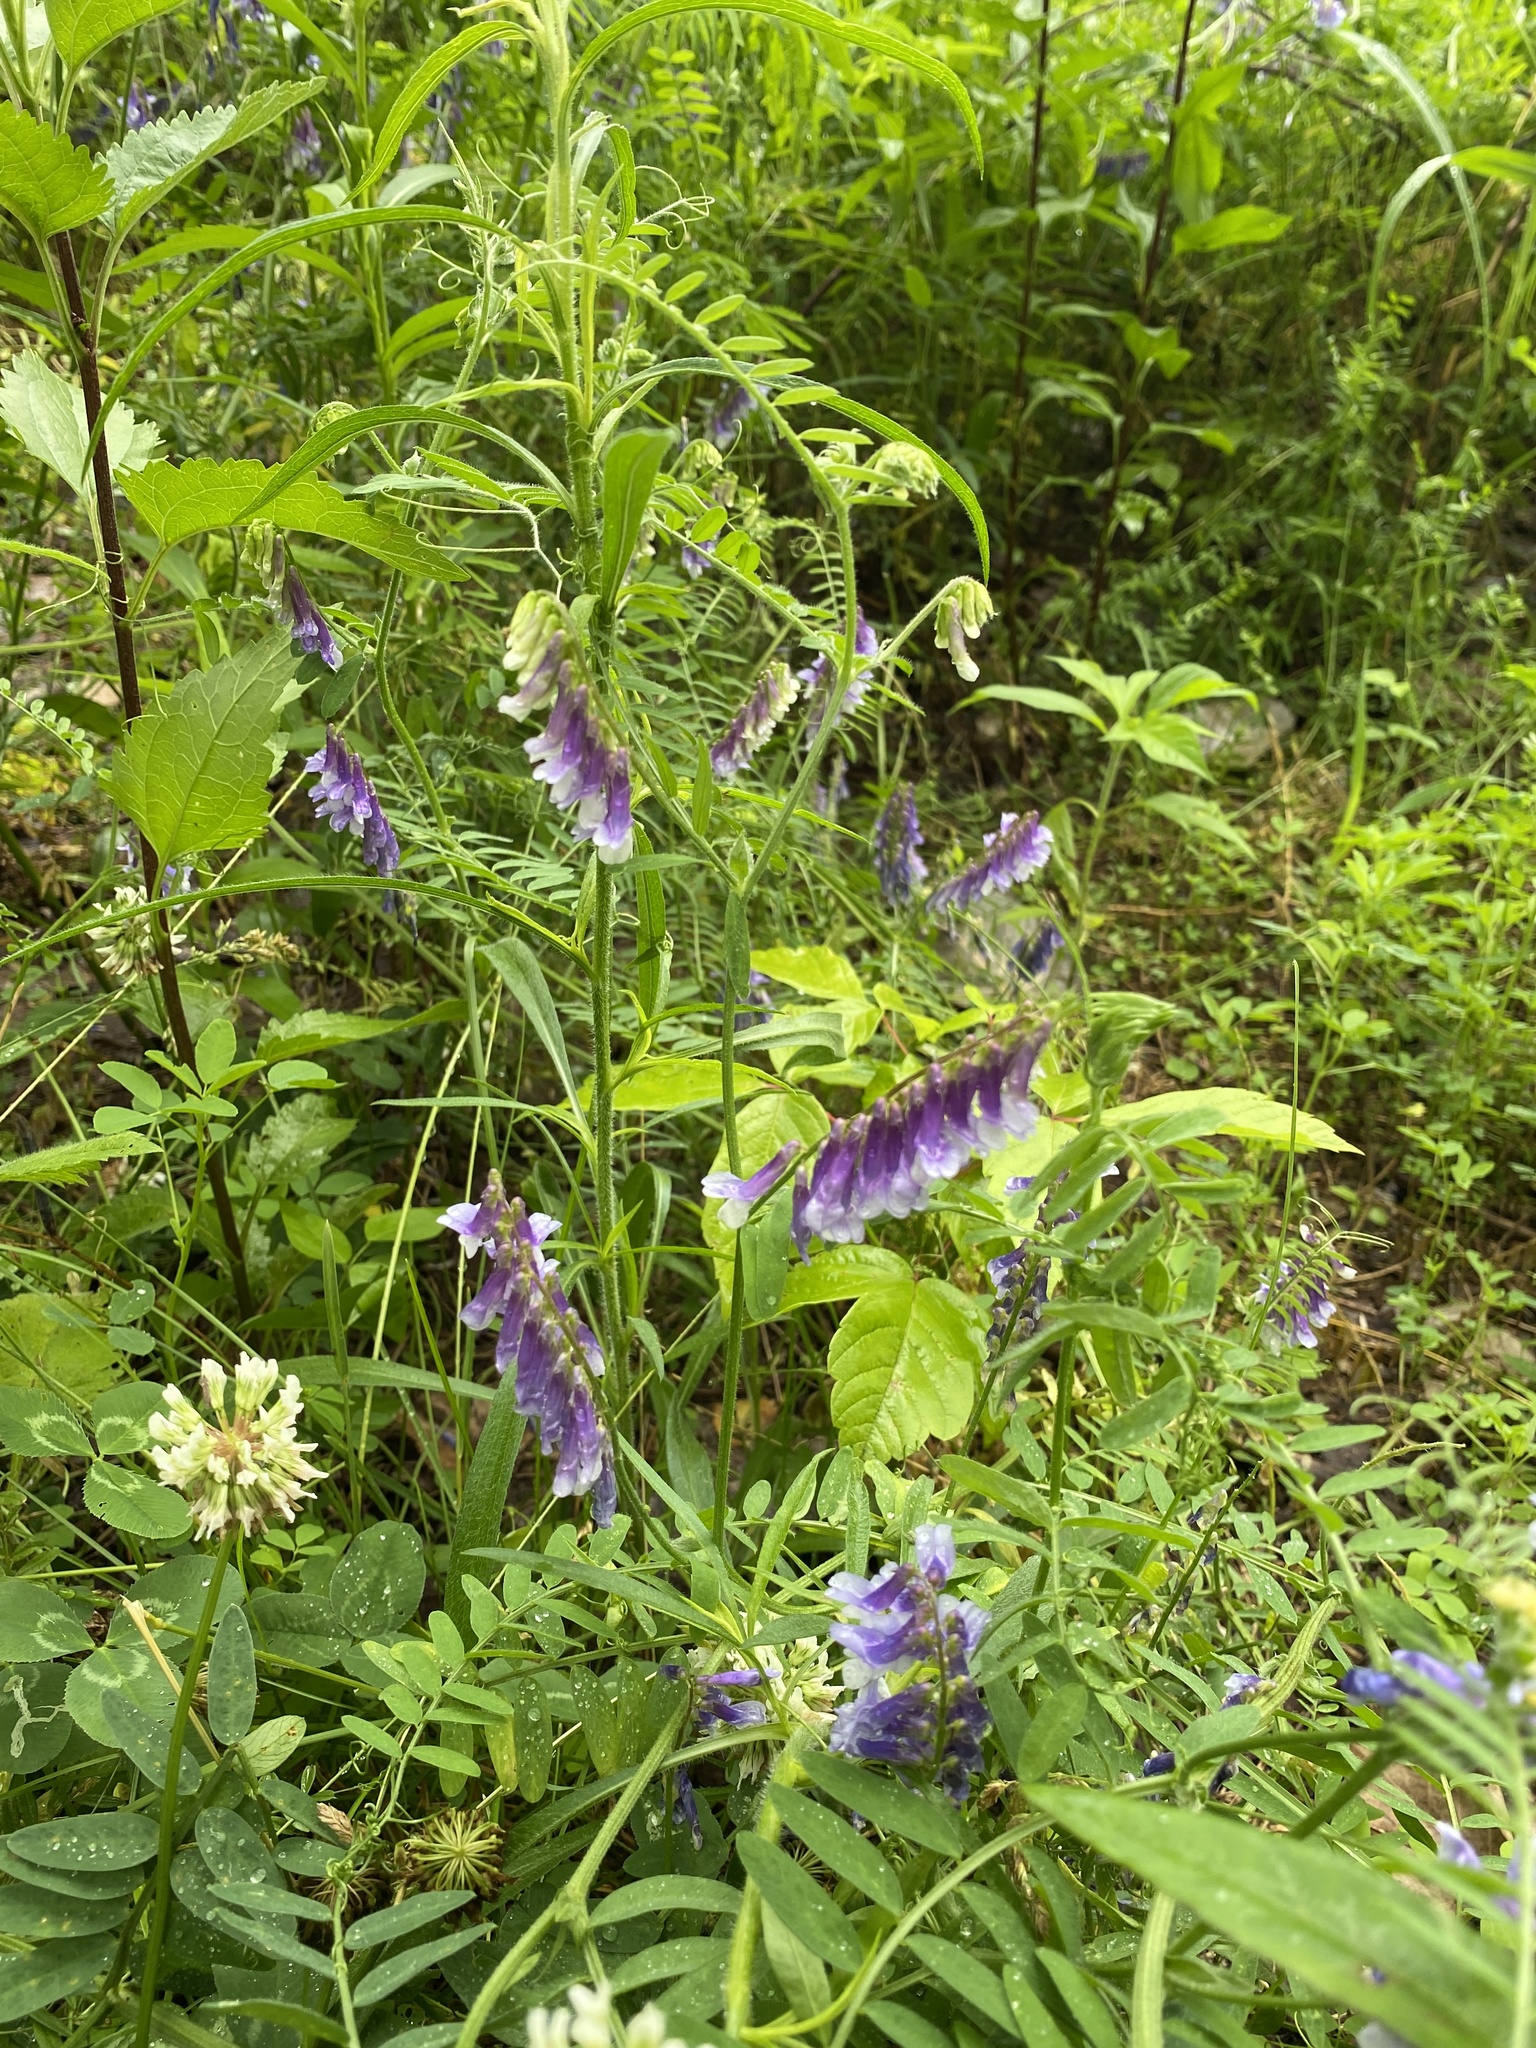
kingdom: Plantae
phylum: Tracheophyta
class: Magnoliopsida
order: Fabales
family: Fabaceae
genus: Vicia
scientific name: Vicia villosa
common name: Fodder vetch
